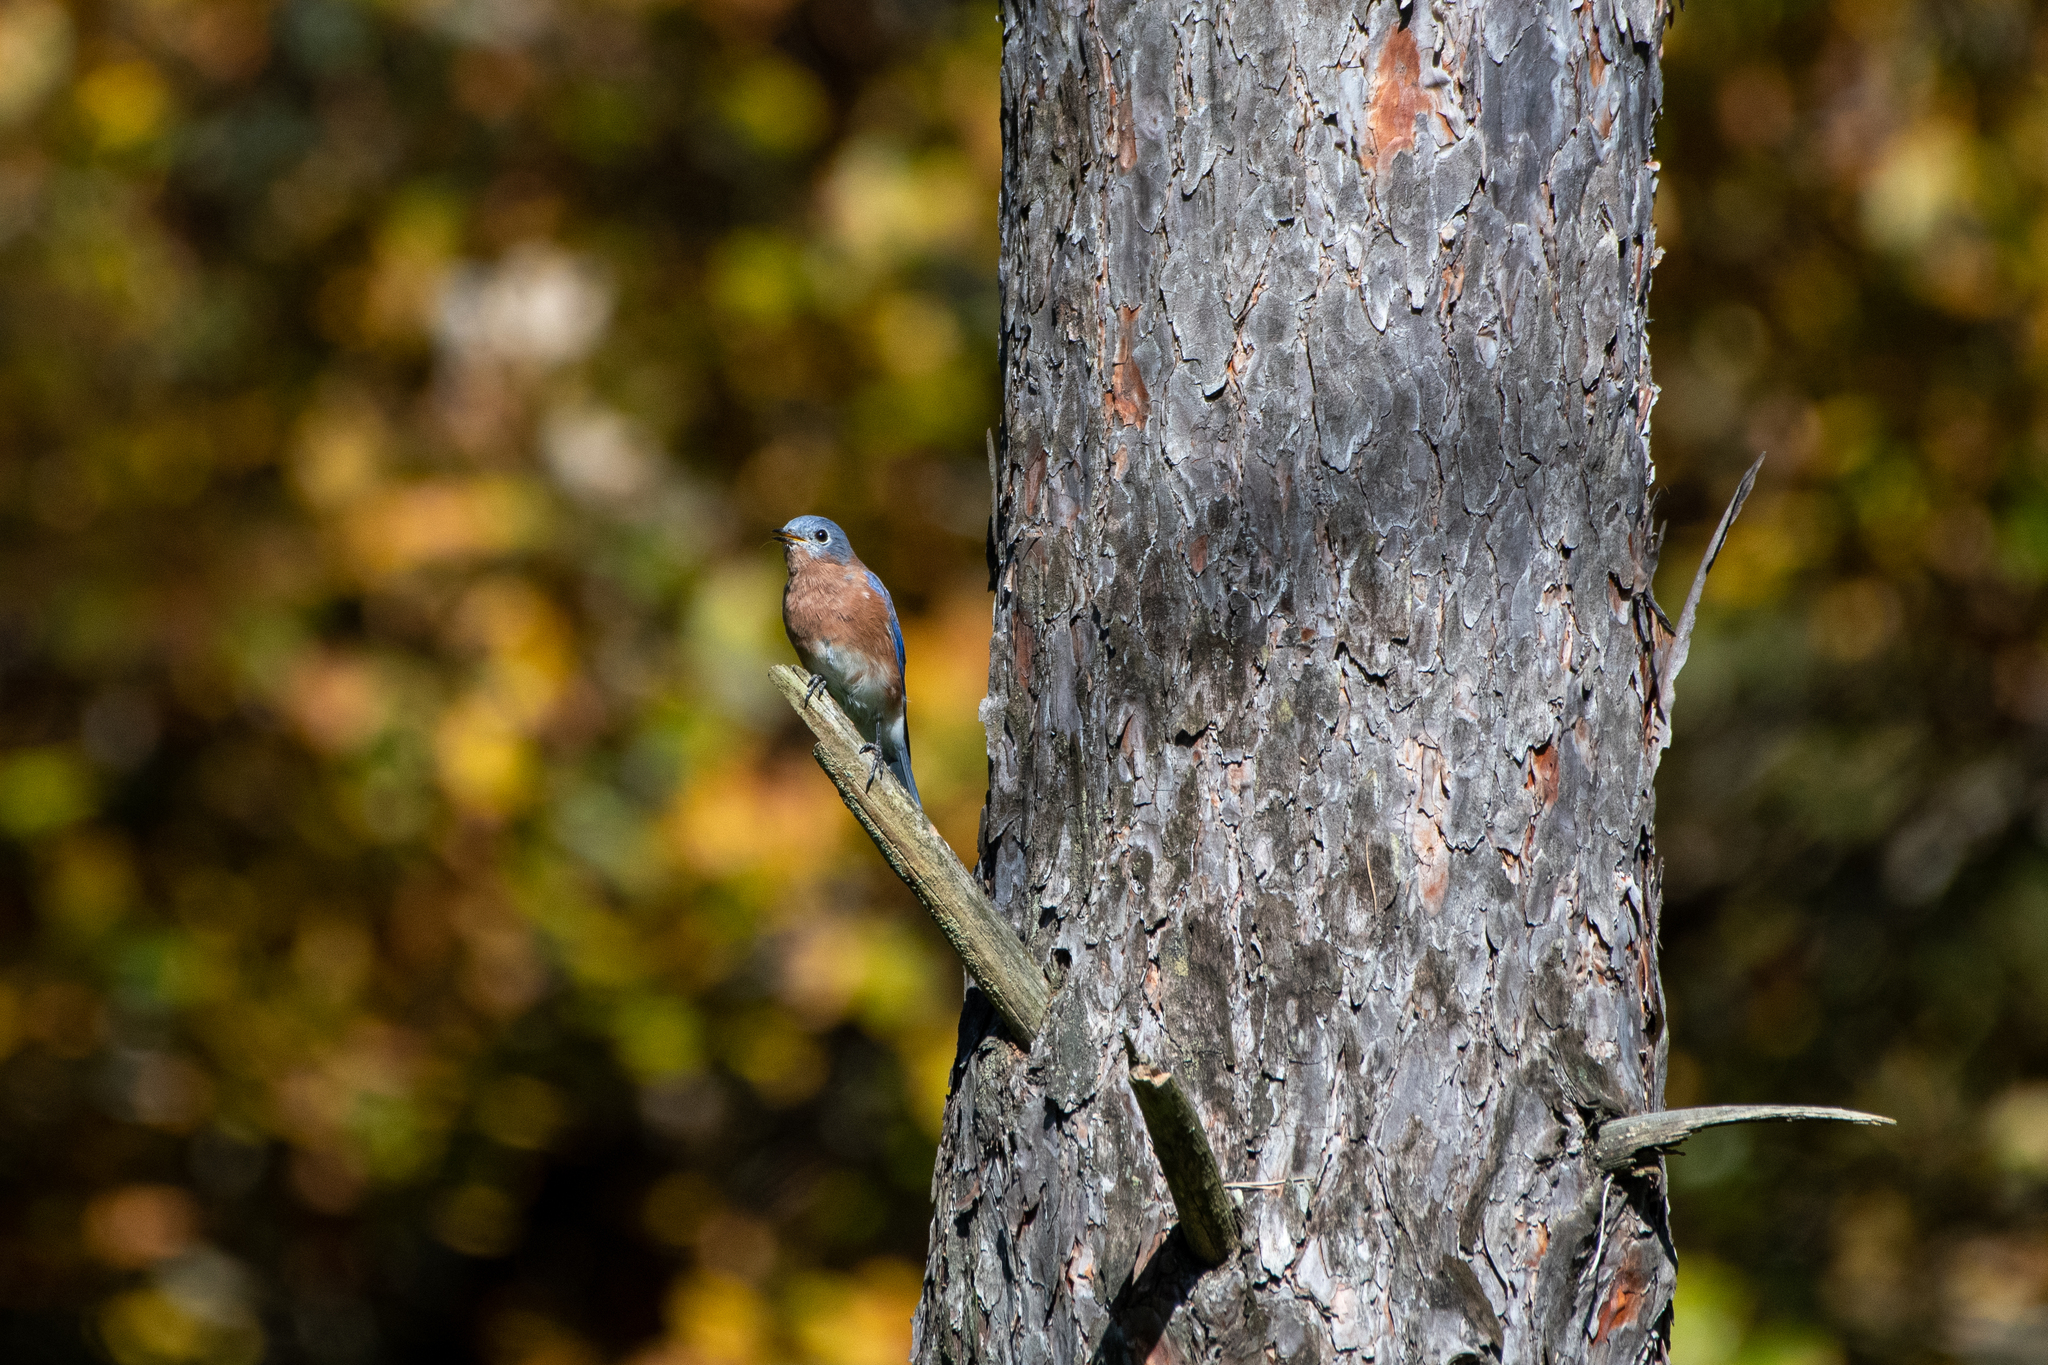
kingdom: Animalia
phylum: Chordata
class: Aves
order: Passeriformes
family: Turdidae
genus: Sialia
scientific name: Sialia sialis
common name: Eastern bluebird
